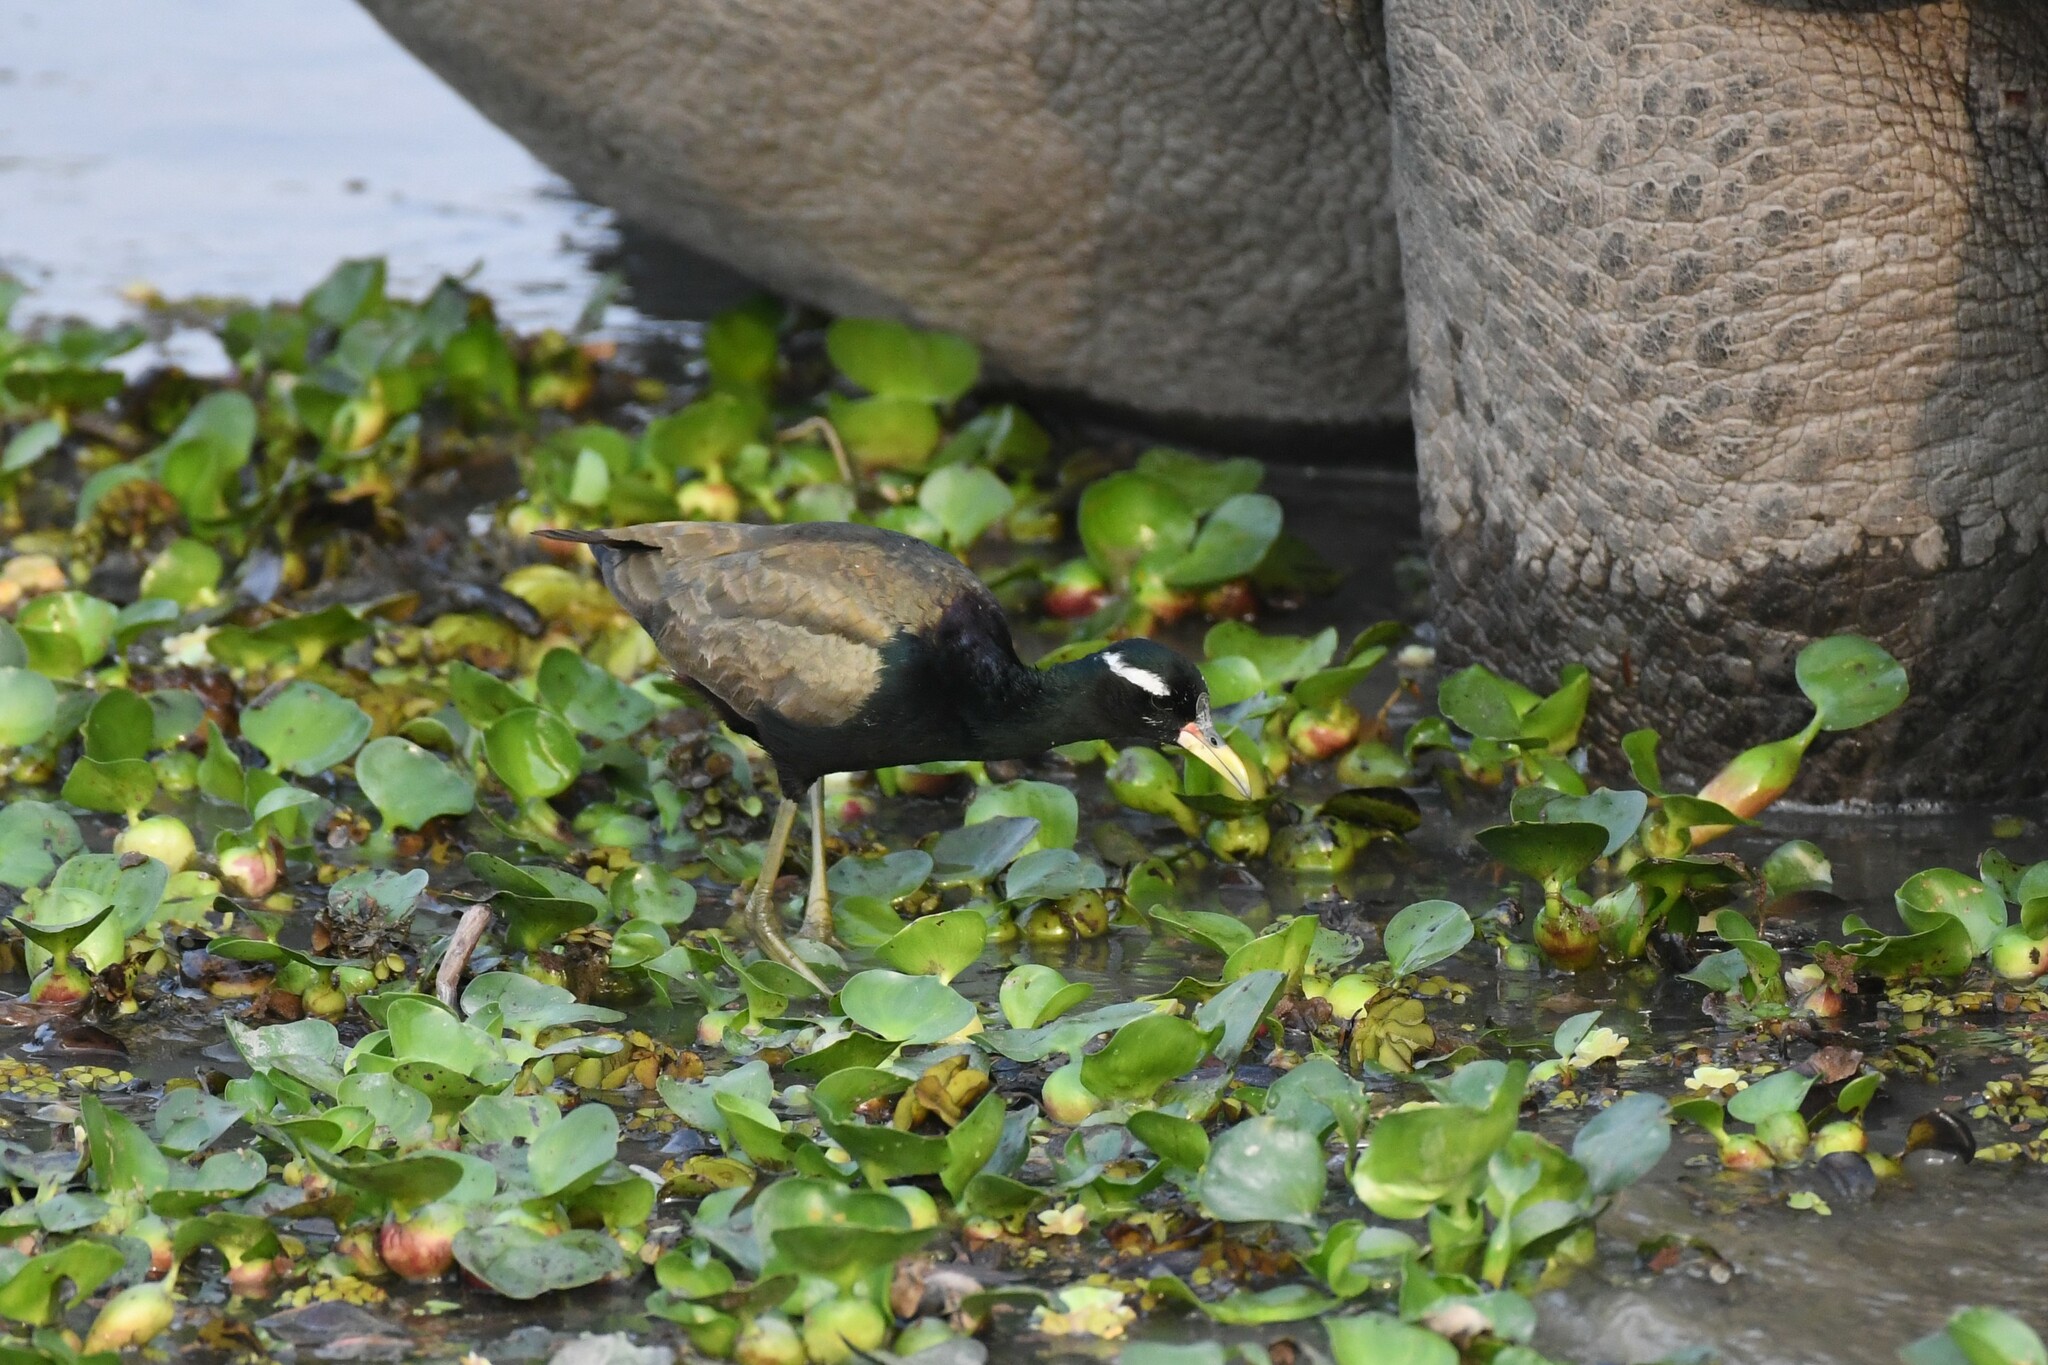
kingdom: Animalia
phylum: Chordata
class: Aves
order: Charadriiformes
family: Jacanidae
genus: Metopidius
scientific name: Metopidius indicus
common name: Bronze-winged jacana
